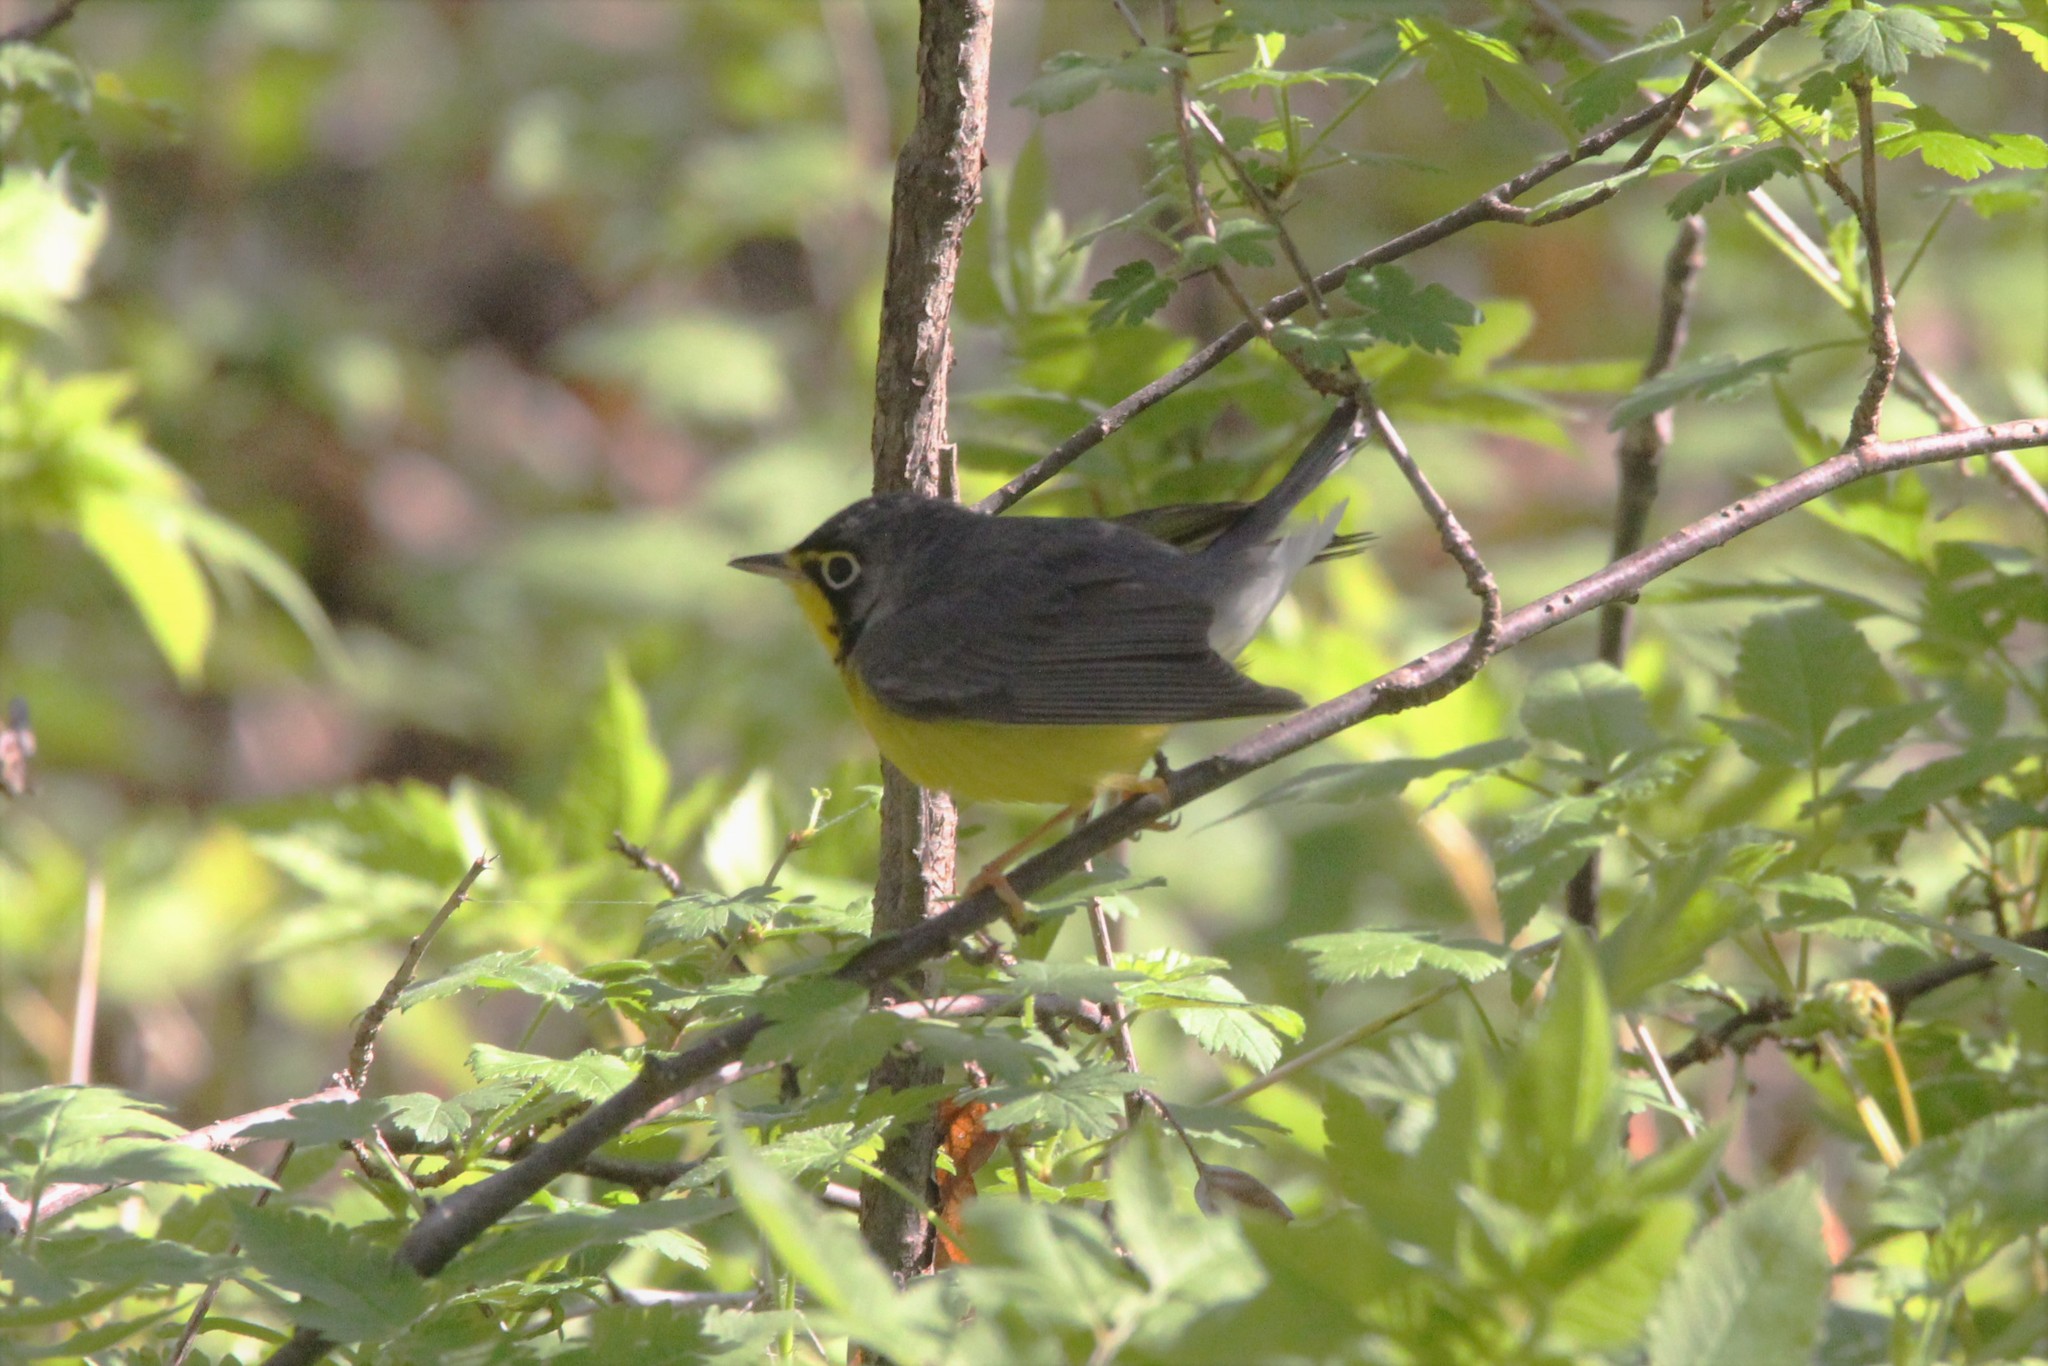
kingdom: Animalia
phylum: Chordata
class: Aves
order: Passeriformes
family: Parulidae
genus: Cardellina
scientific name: Cardellina canadensis
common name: Canada warbler
